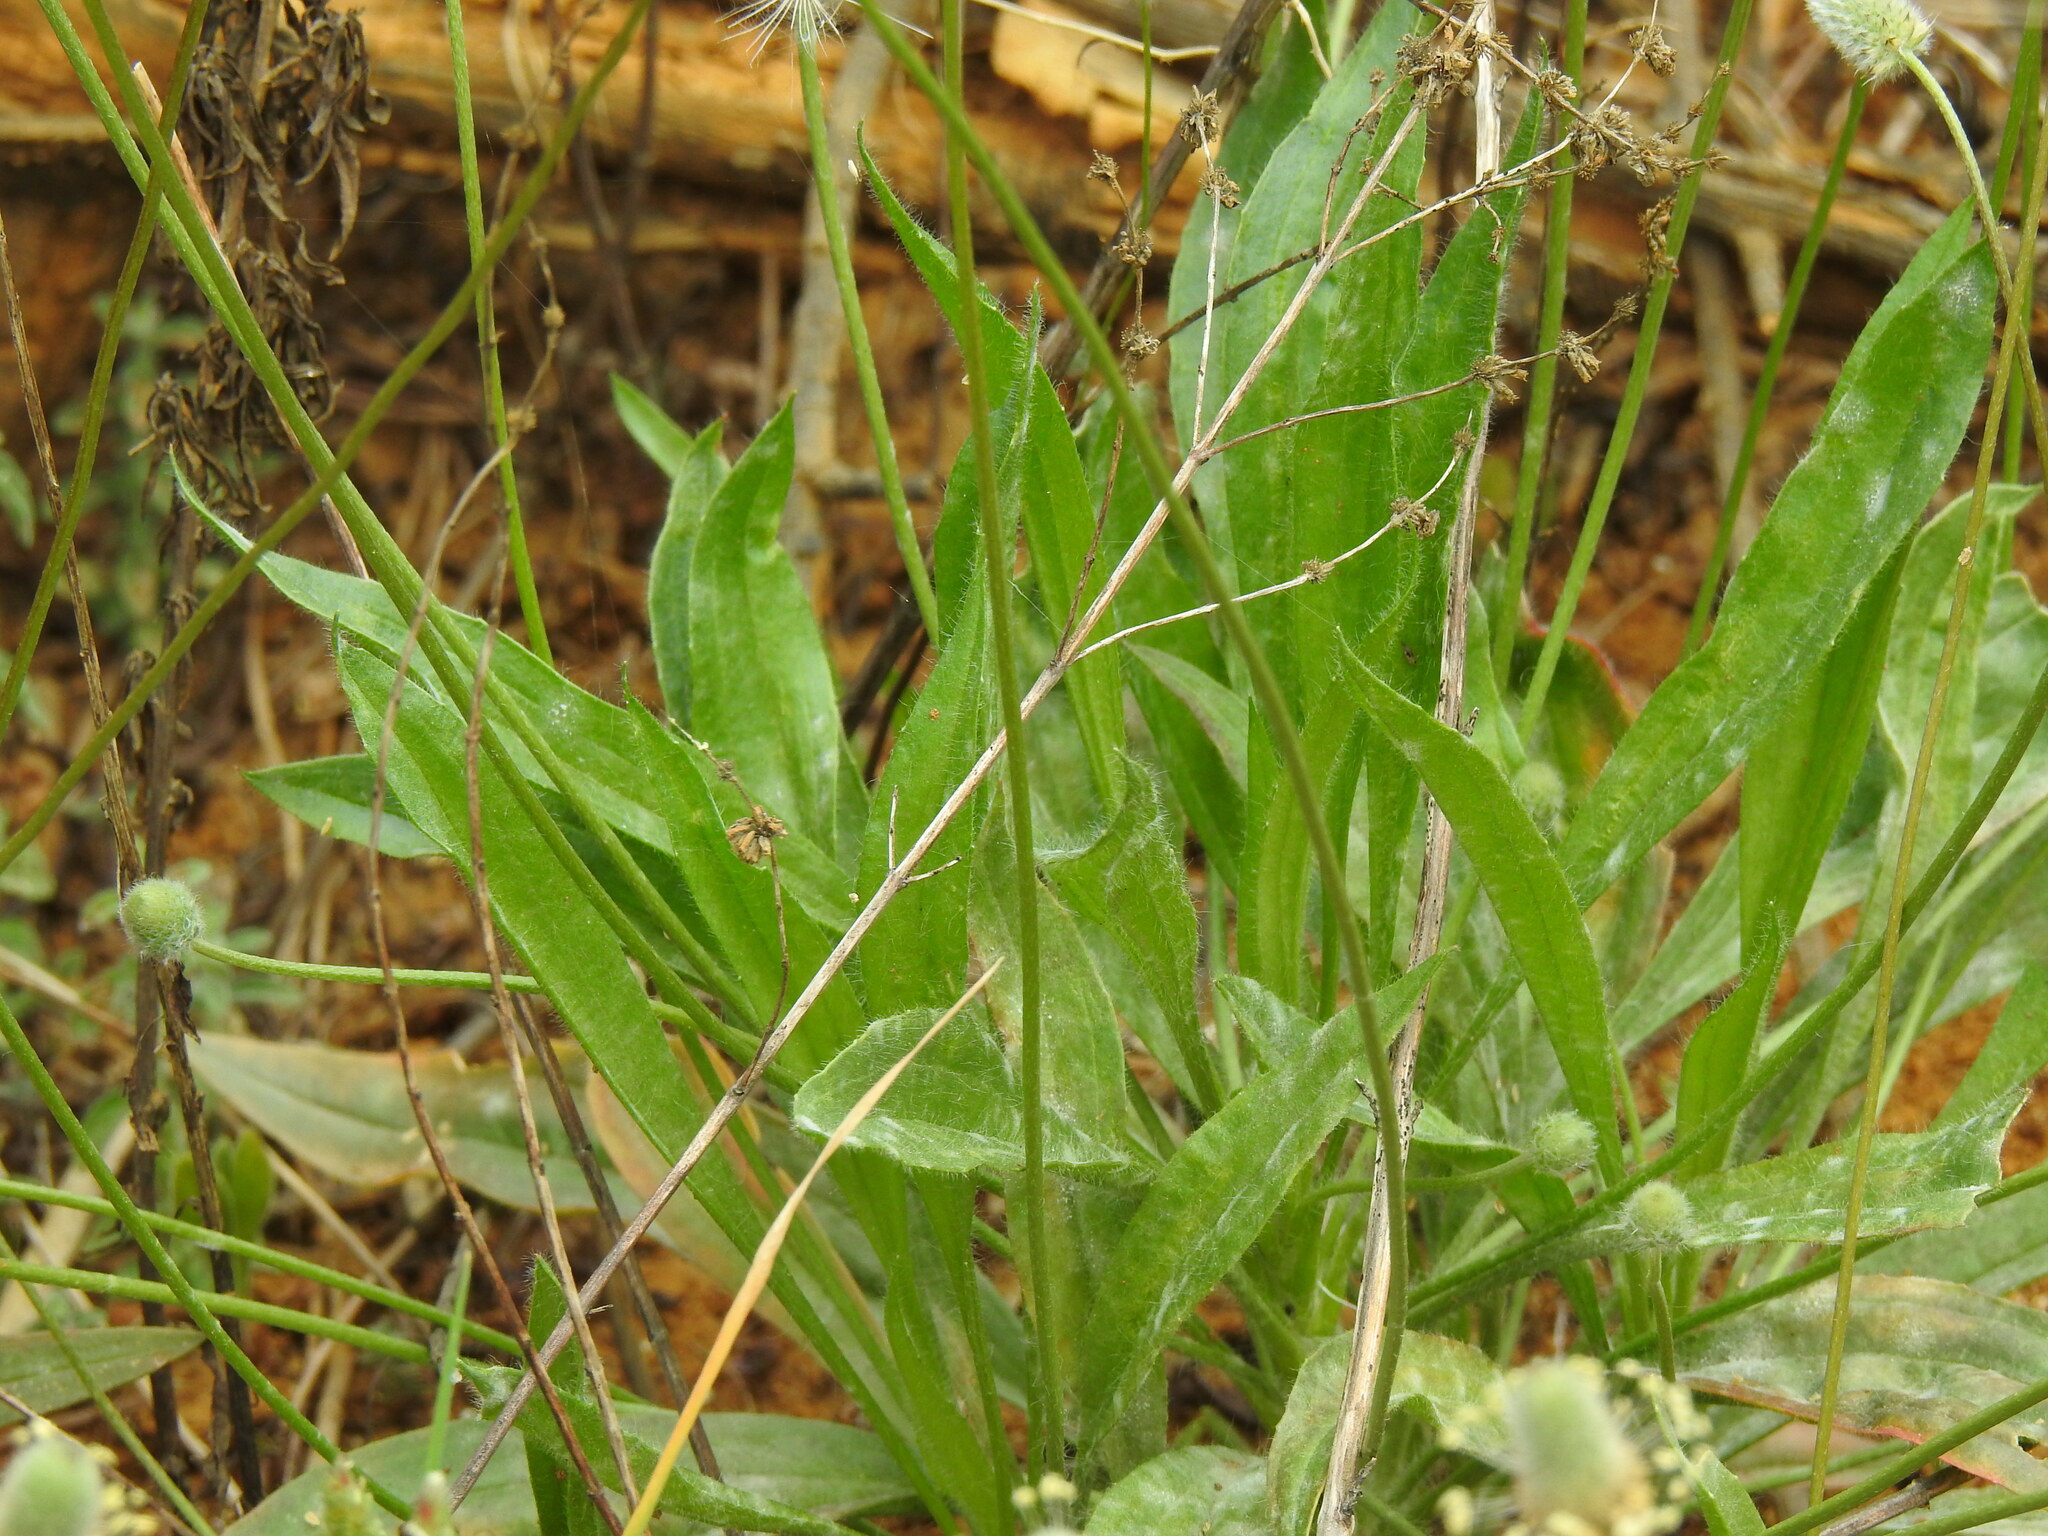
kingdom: Plantae
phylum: Tracheophyta
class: Magnoliopsida
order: Lamiales
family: Plantaginaceae
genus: Plantago
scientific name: Plantago lagopus
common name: Hare-foot plantain
